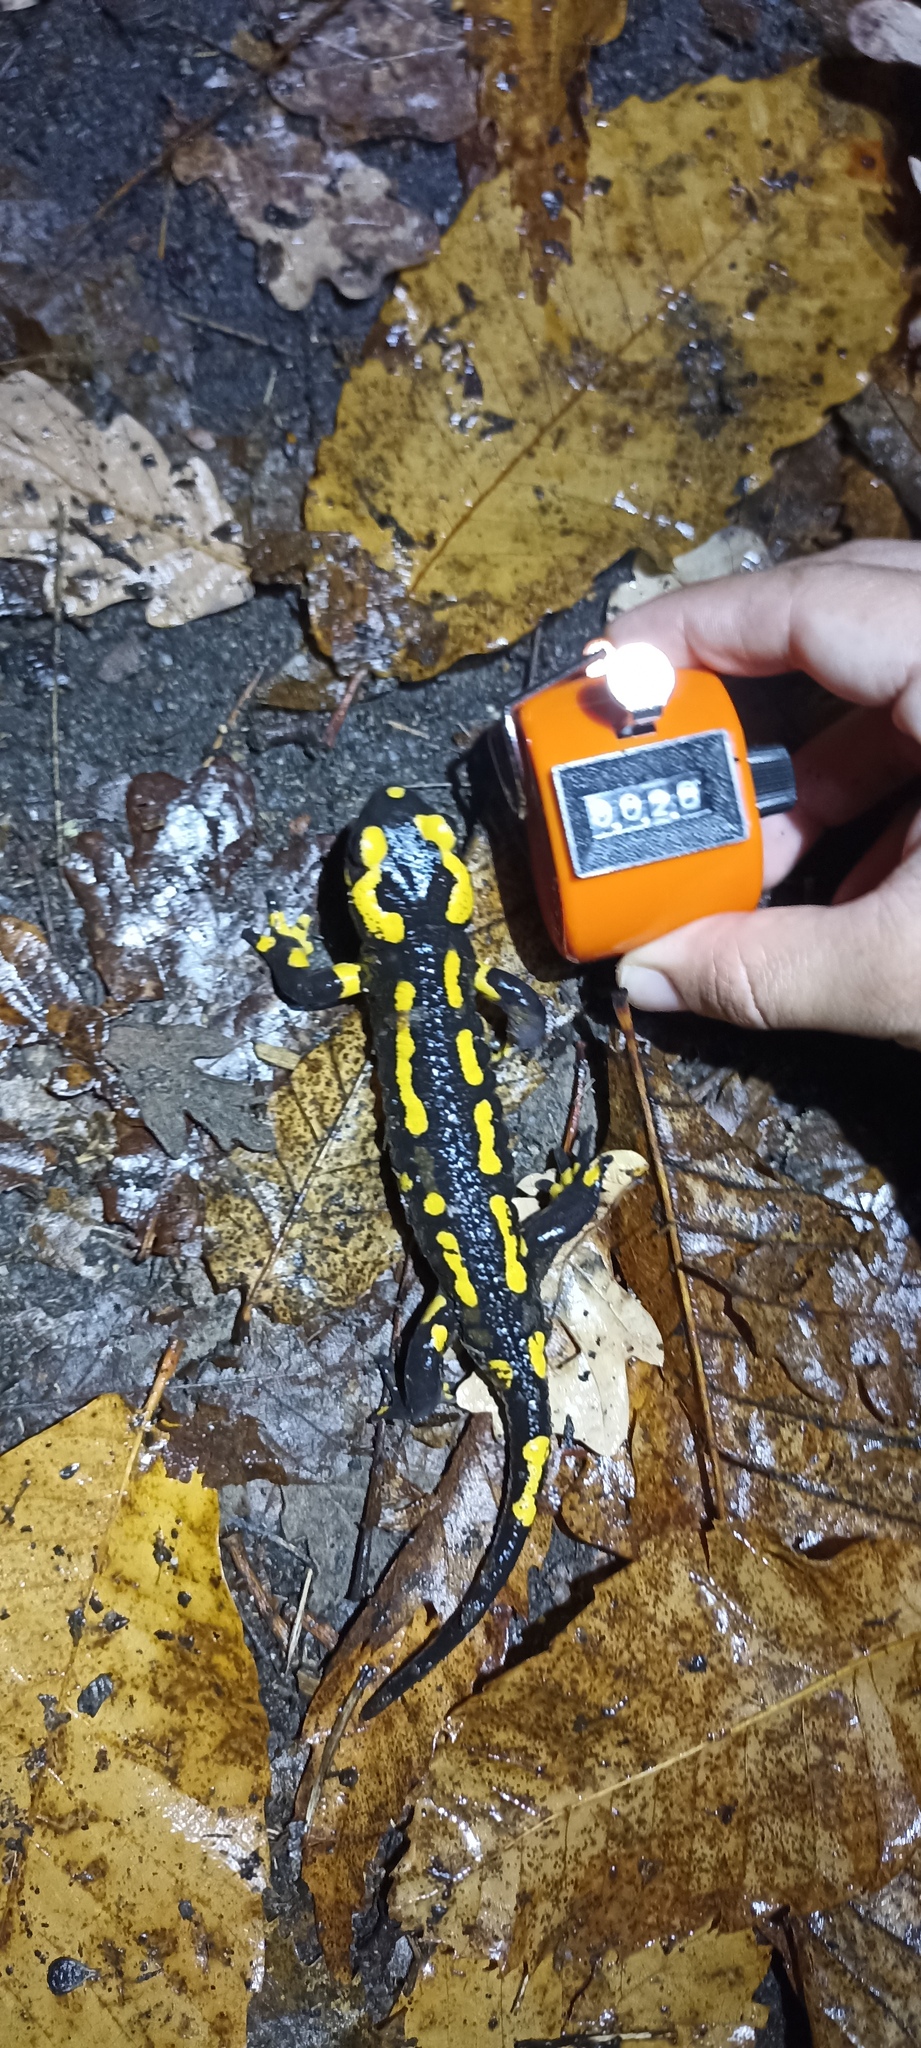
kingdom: Animalia
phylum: Chordata
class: Amphibia
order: Caudata
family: Salamandridae
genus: Salamandra
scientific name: Salamandra salamandra
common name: Fire salamander
